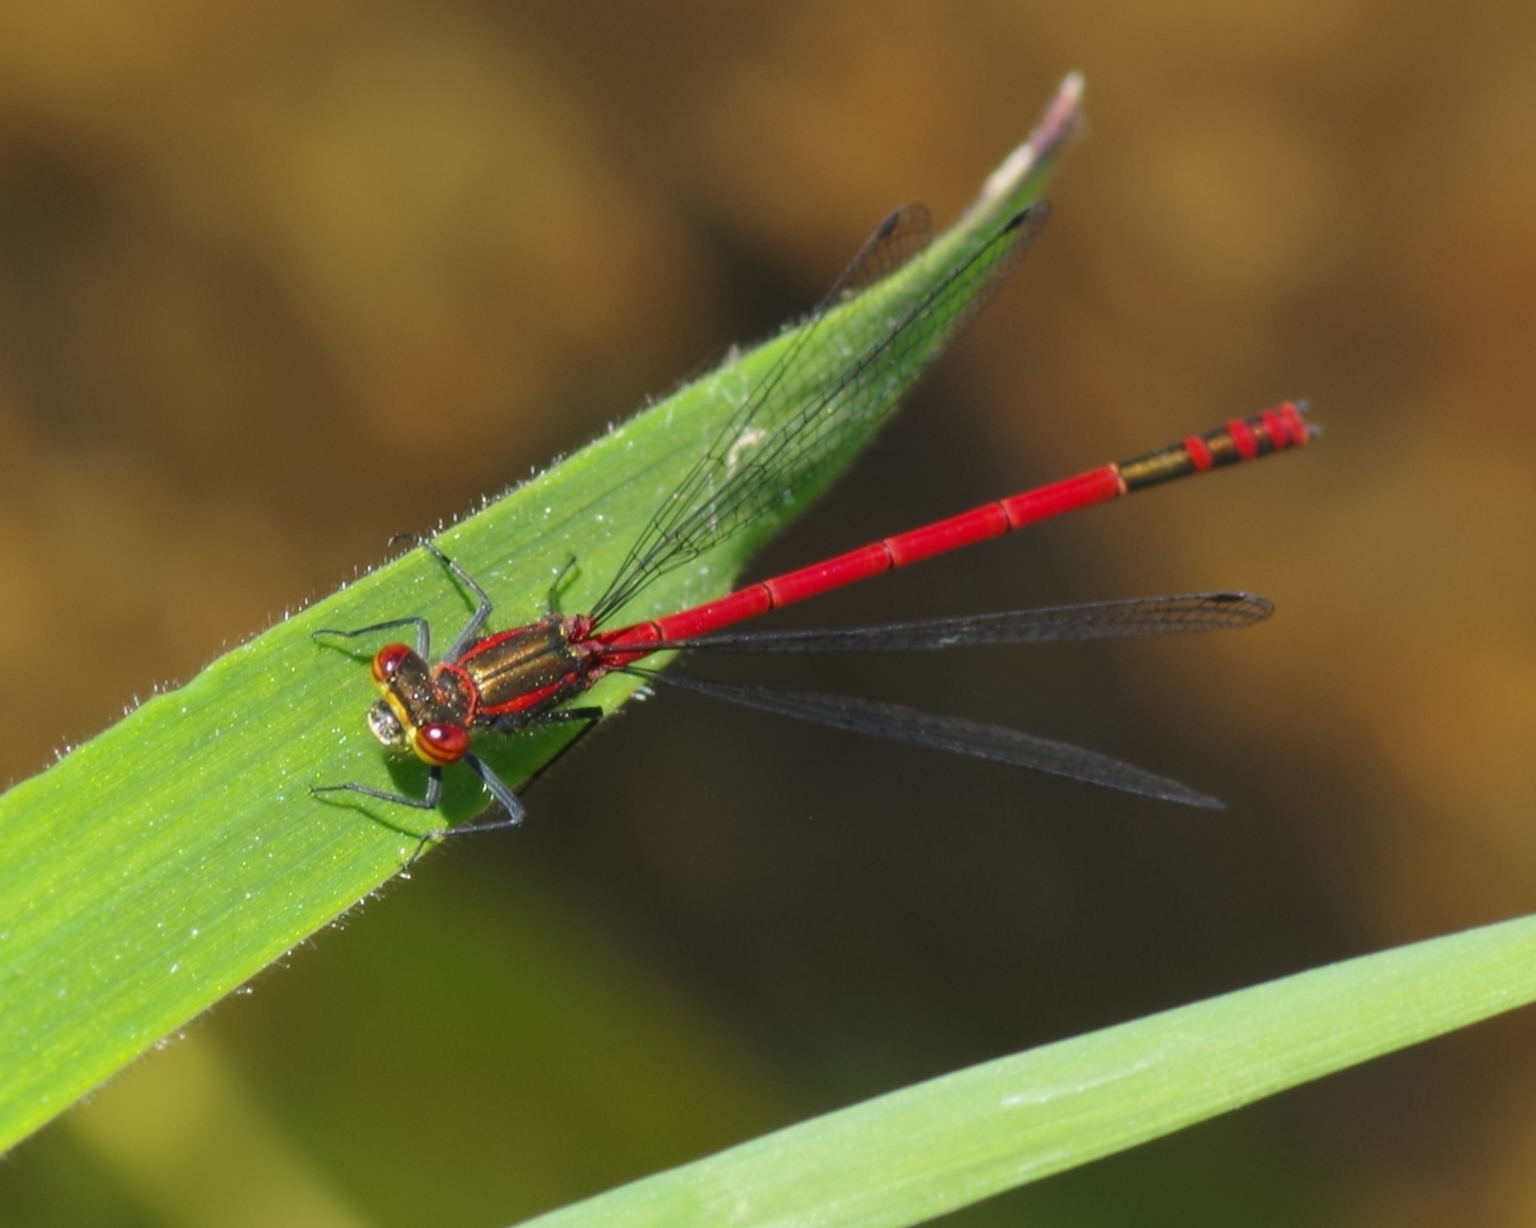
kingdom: Animalia
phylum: Arthropoda
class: Insecta
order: Odonata
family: Coenagrionidae
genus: Pyrrhosoma
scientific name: Pyrrhosoma nymphula
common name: Large red damsel
